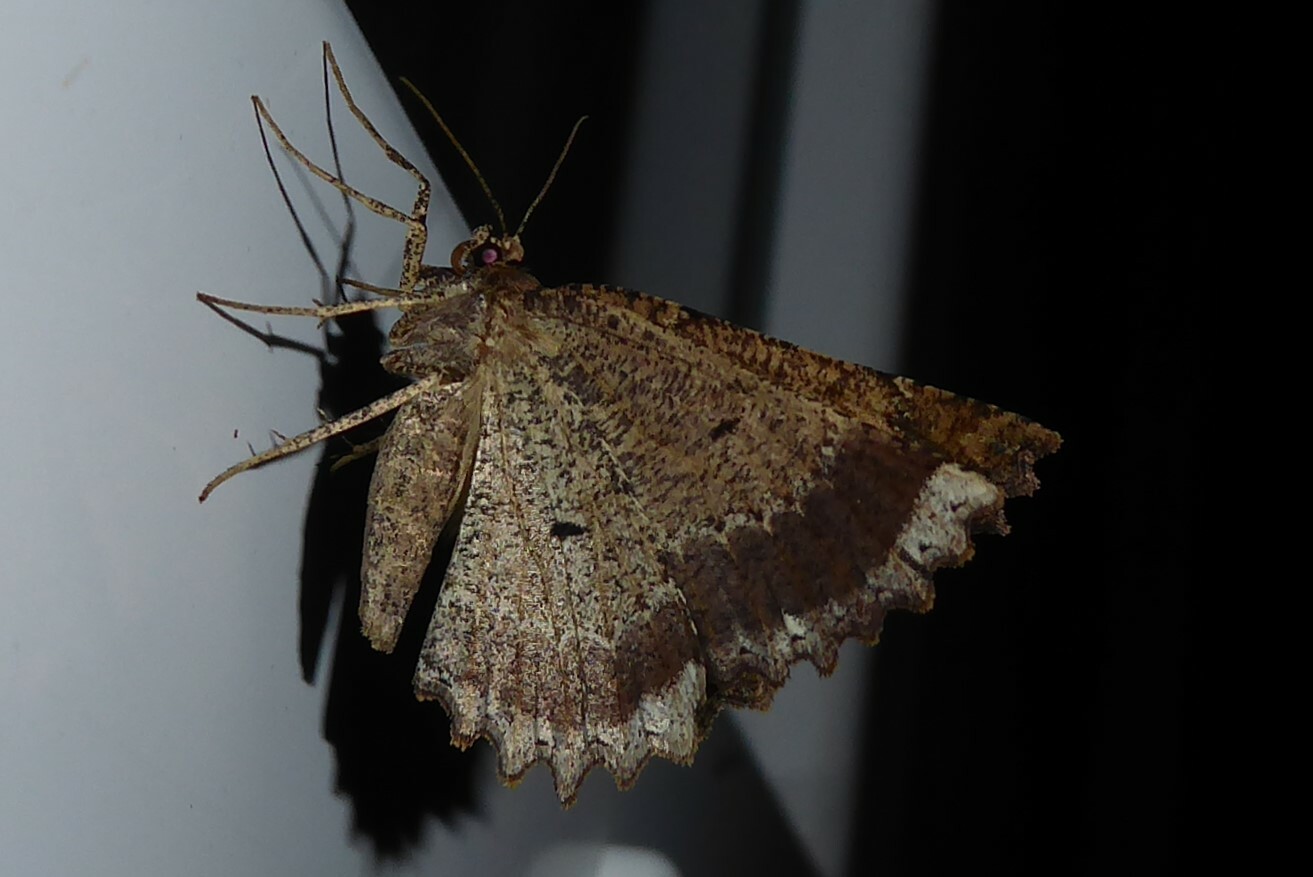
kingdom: Animalia
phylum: Arthropoda
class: Insecta
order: Lepidoptera
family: Geometridae
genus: Gellonia
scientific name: Gellonia pannularia
